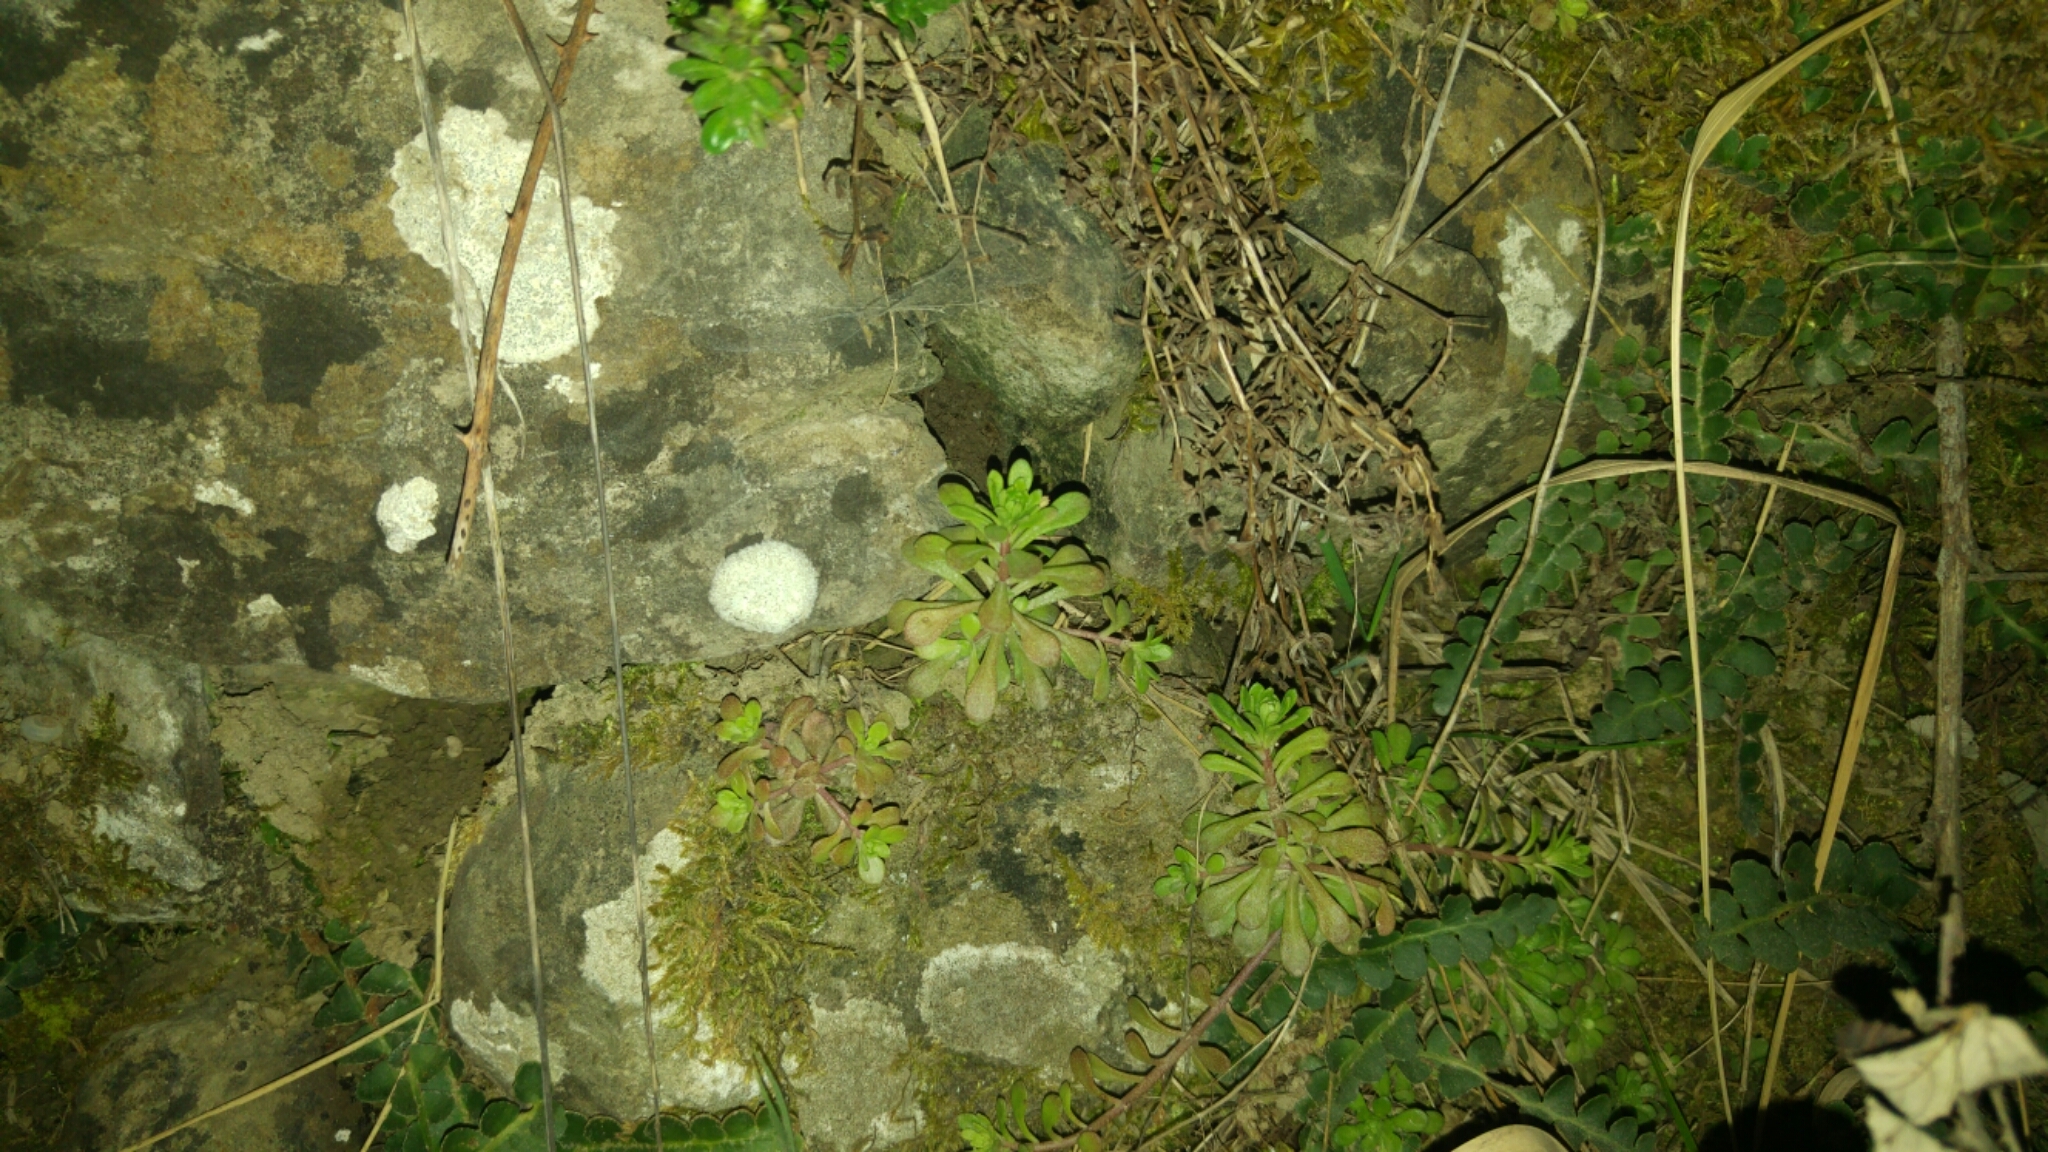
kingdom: Plantae
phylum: Tracheophyta
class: Magnoliopsida
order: Saxifragales
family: Crassulaceae
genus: Sedum
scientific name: Sedum cepaea
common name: Pink stonecrop
